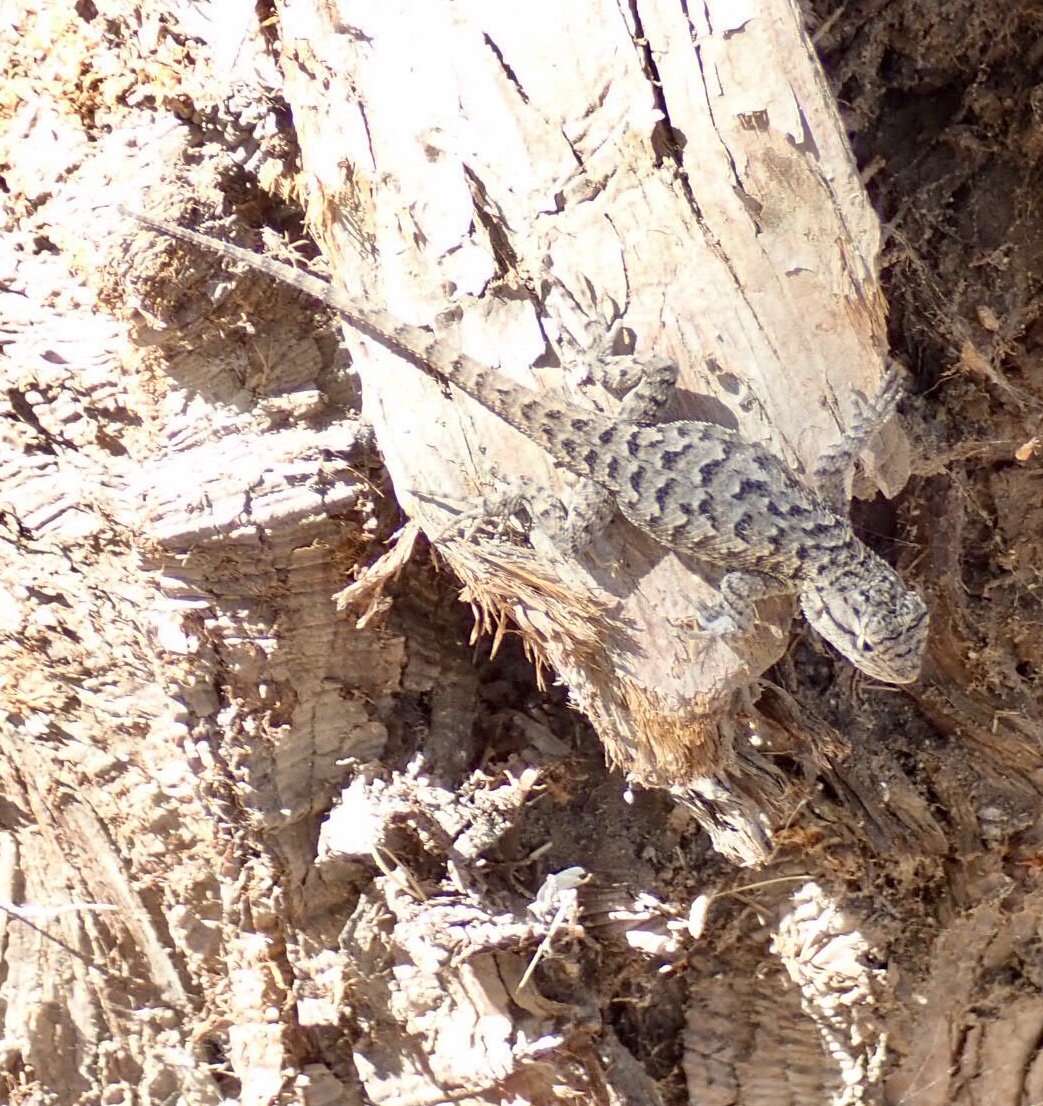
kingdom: Animalia
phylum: Chordata
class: Squamata
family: Phrynosomatidae
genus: Sceloporus
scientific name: Sceloporus occidentalis
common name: Western fence lizard
